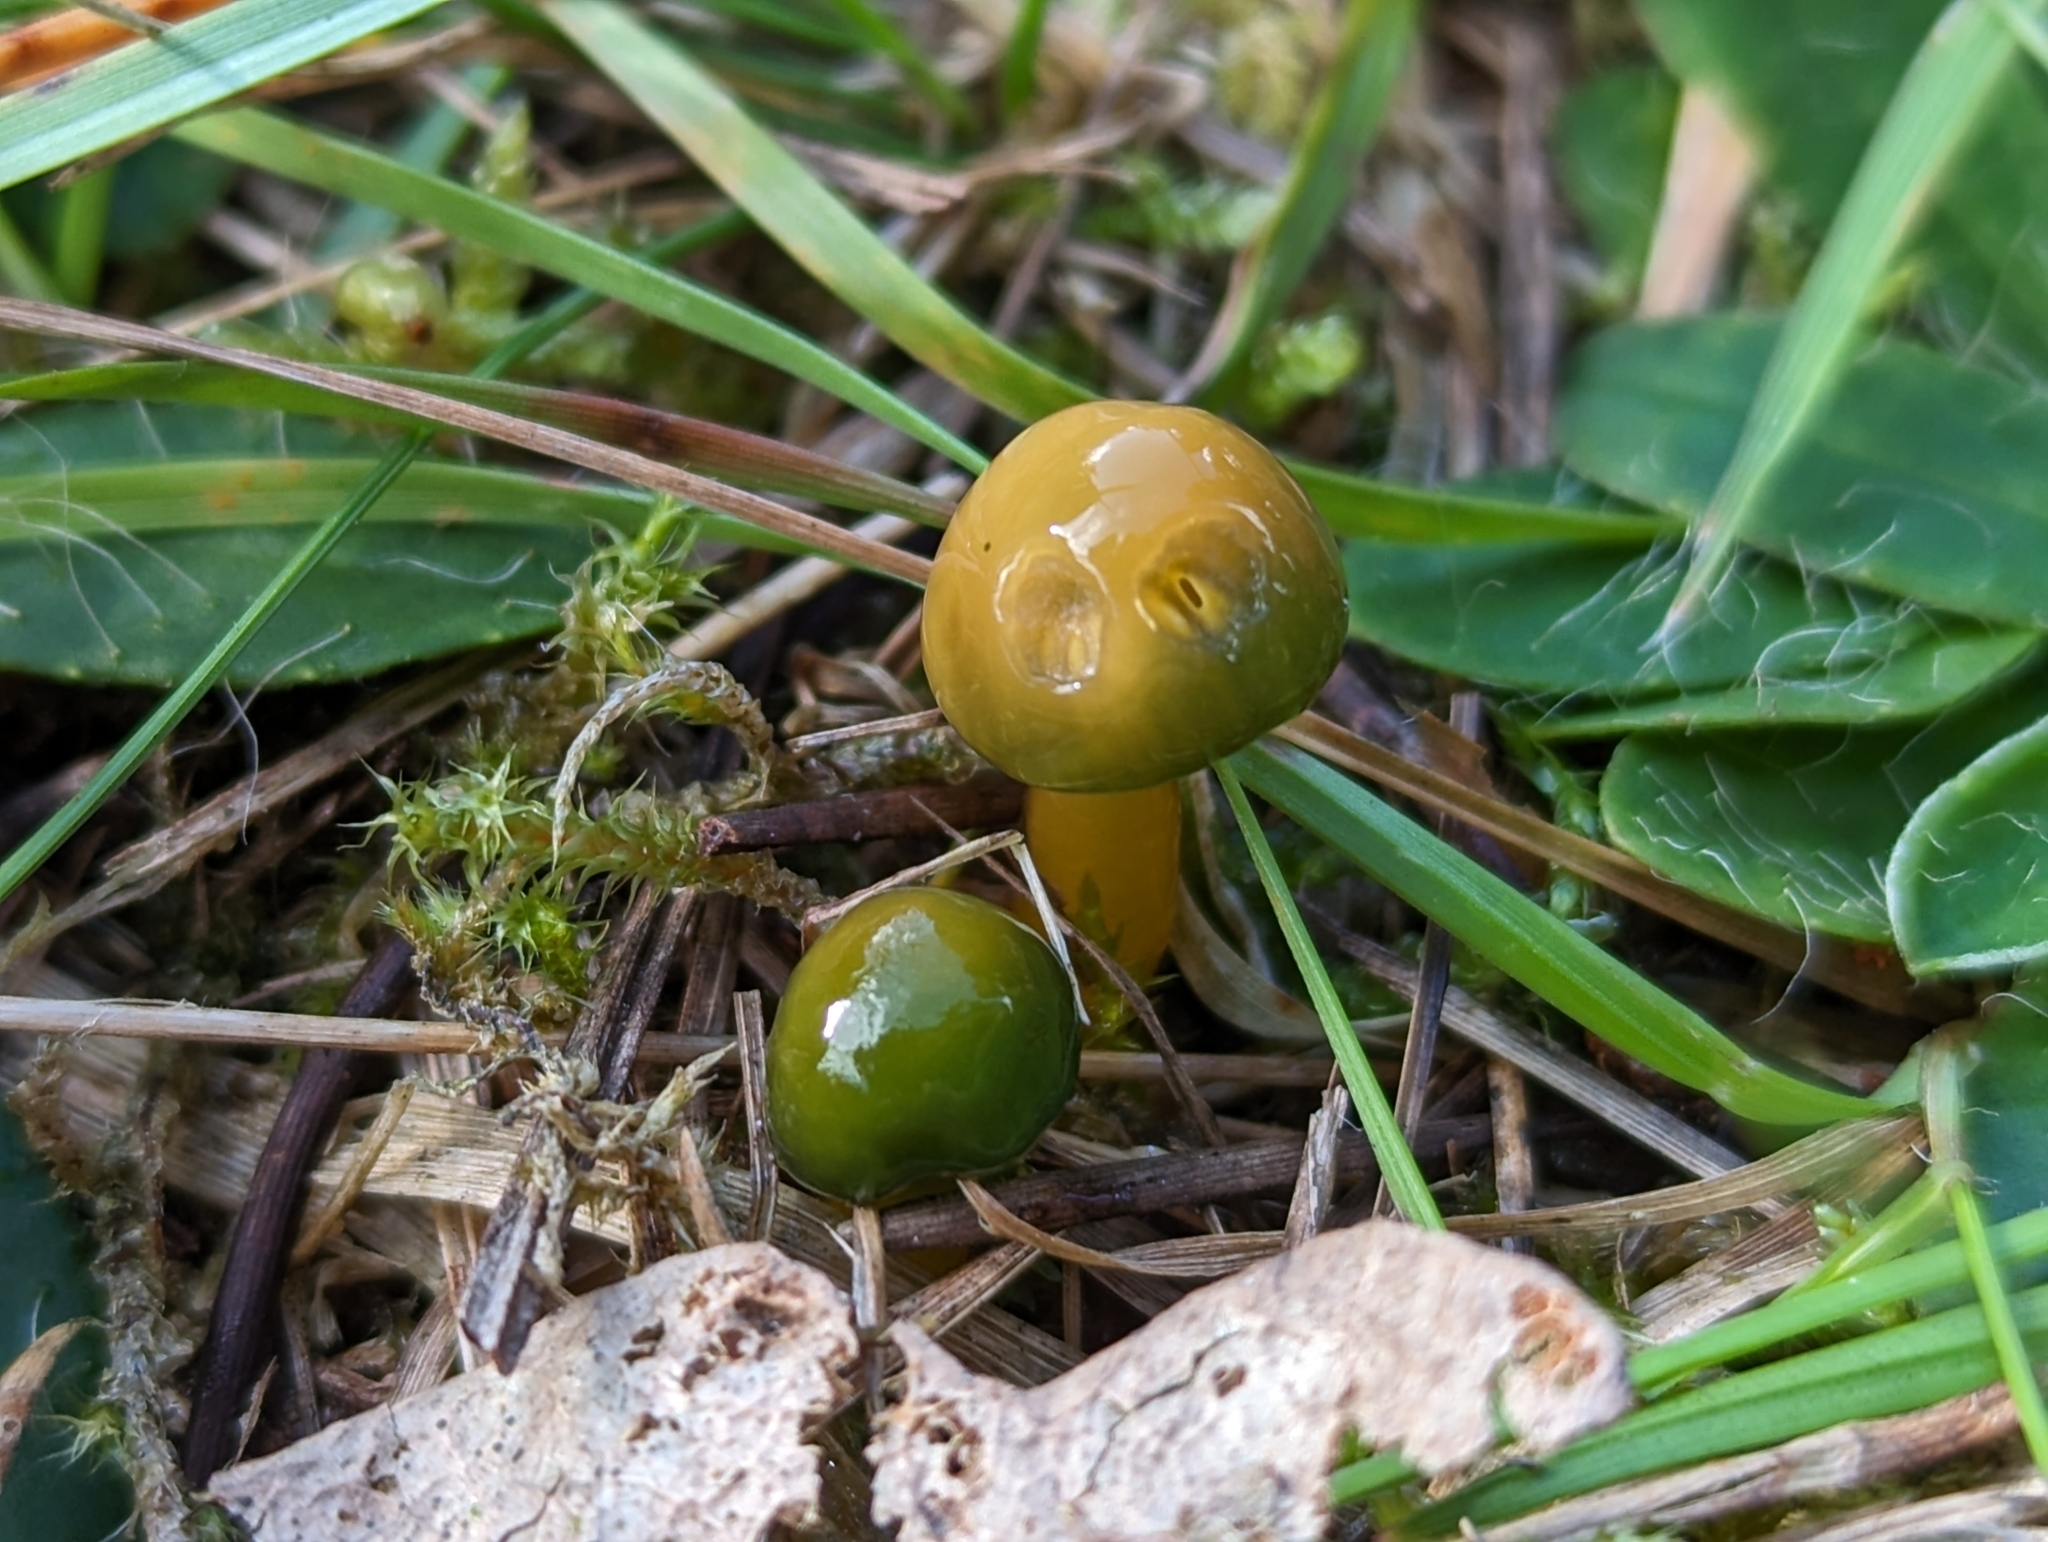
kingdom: Fungi
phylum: Basidiomycota
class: Agaricomycetes
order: Agaricales
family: Hygrophoraceae
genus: Gliophorus
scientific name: Gliophorus psittacinus
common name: Parrot wax-cap
